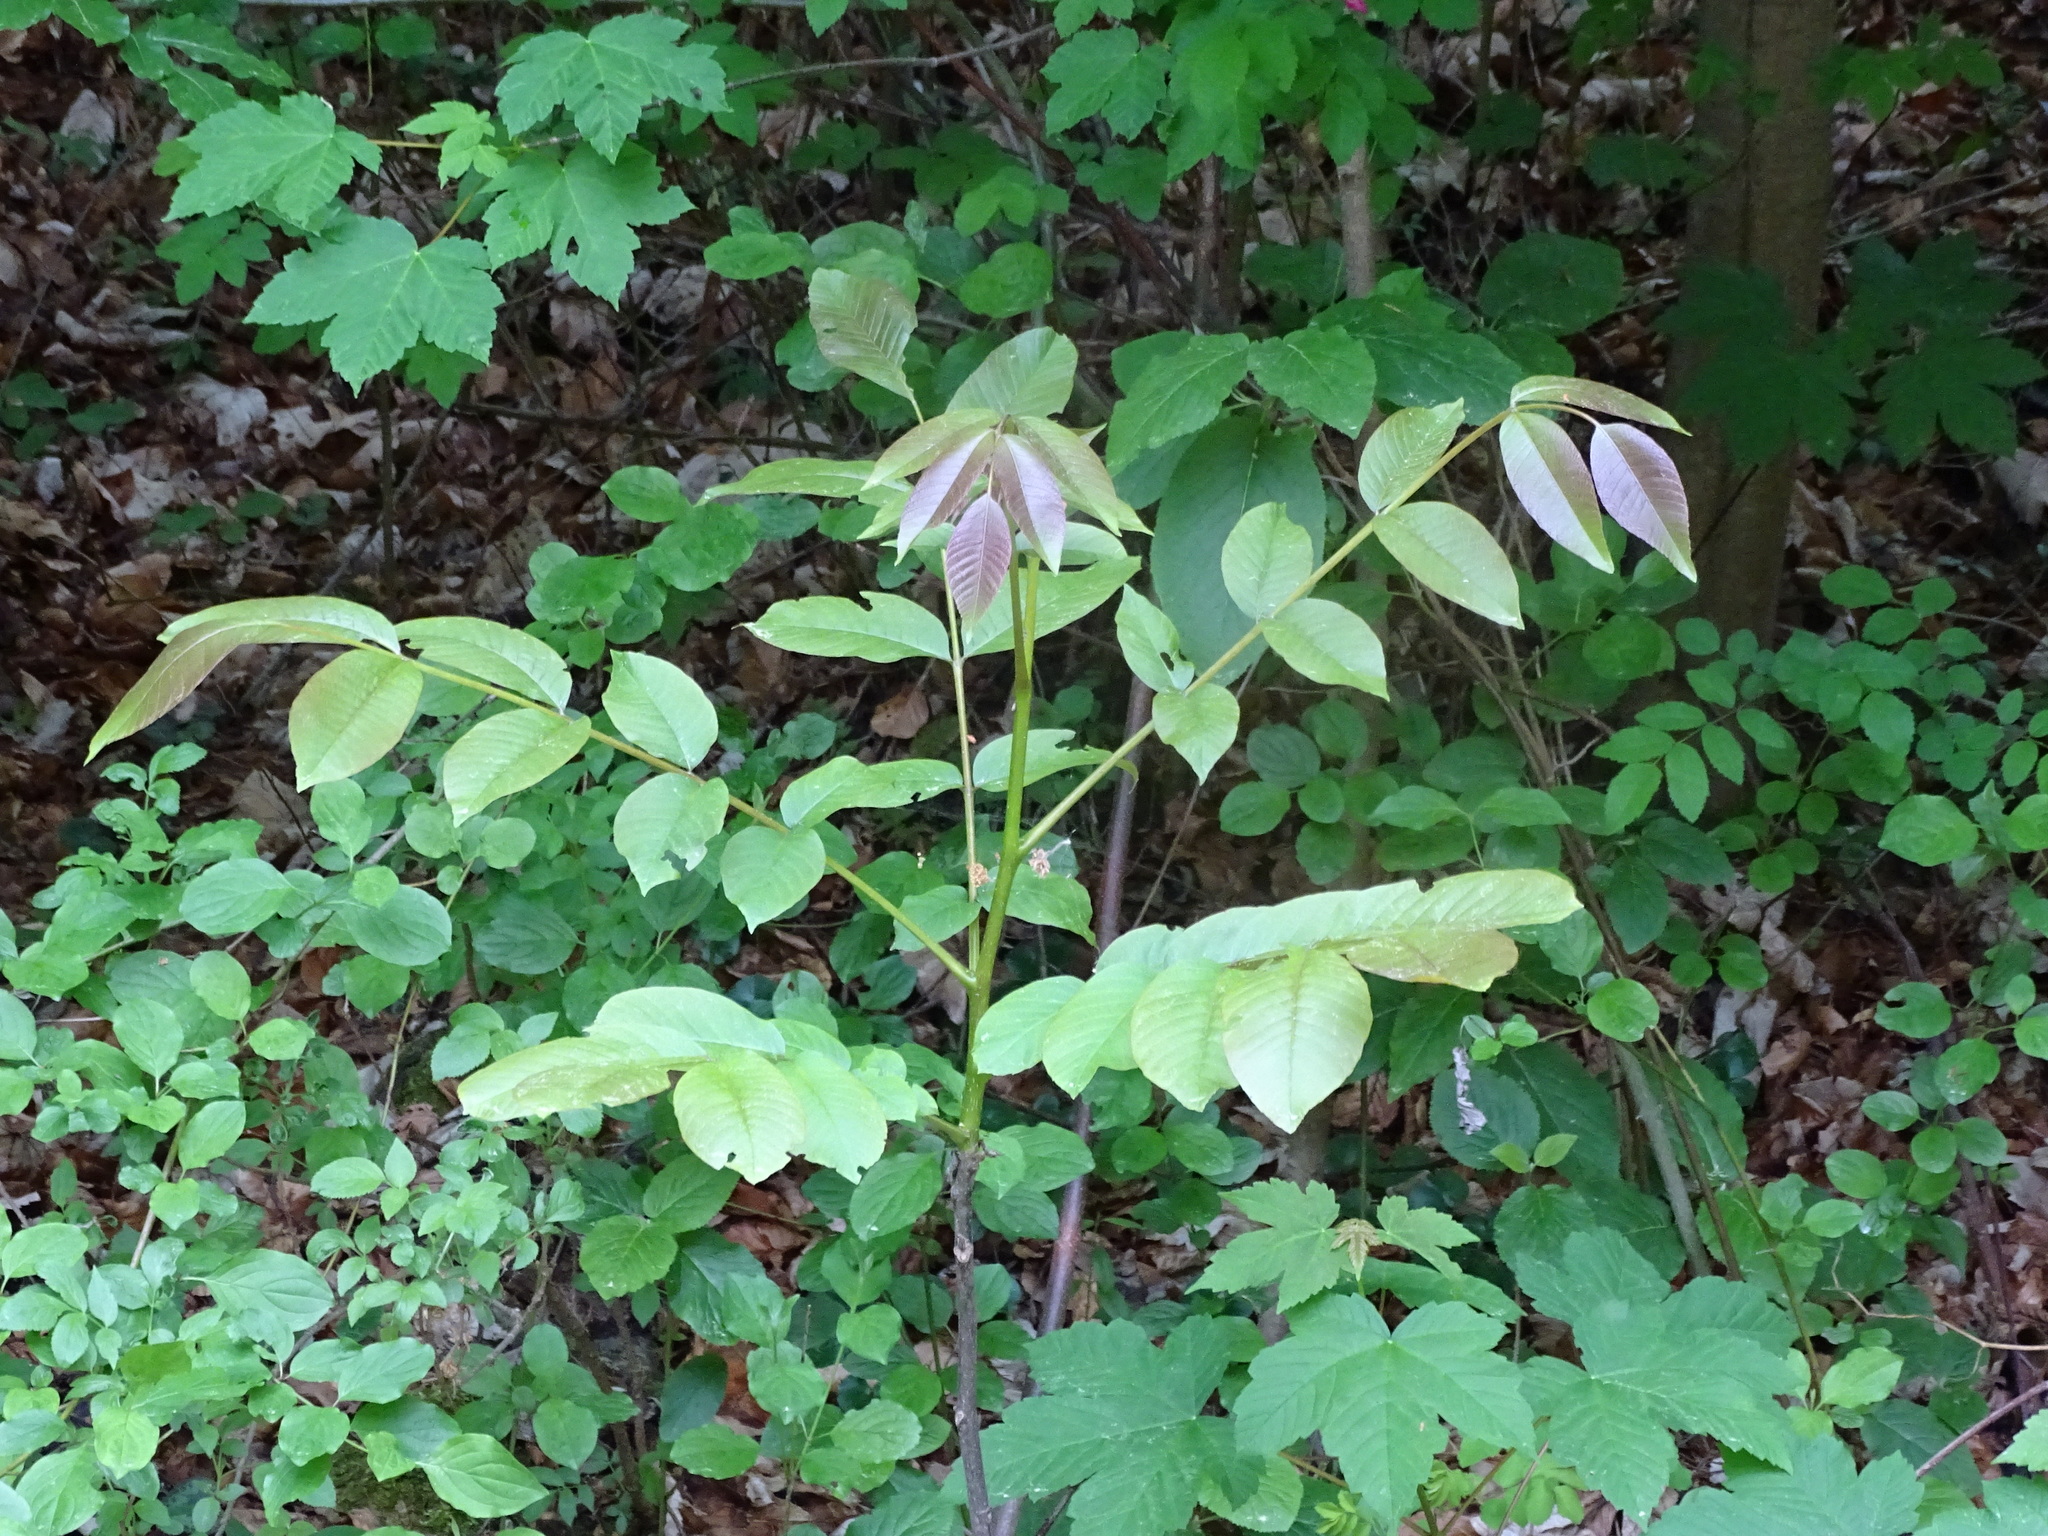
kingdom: Plantae
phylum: Tracheophyta
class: Magnoliopsida
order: Fagales
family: Juglandaceae
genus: Juglans
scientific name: Juglans regia
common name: Walnut
